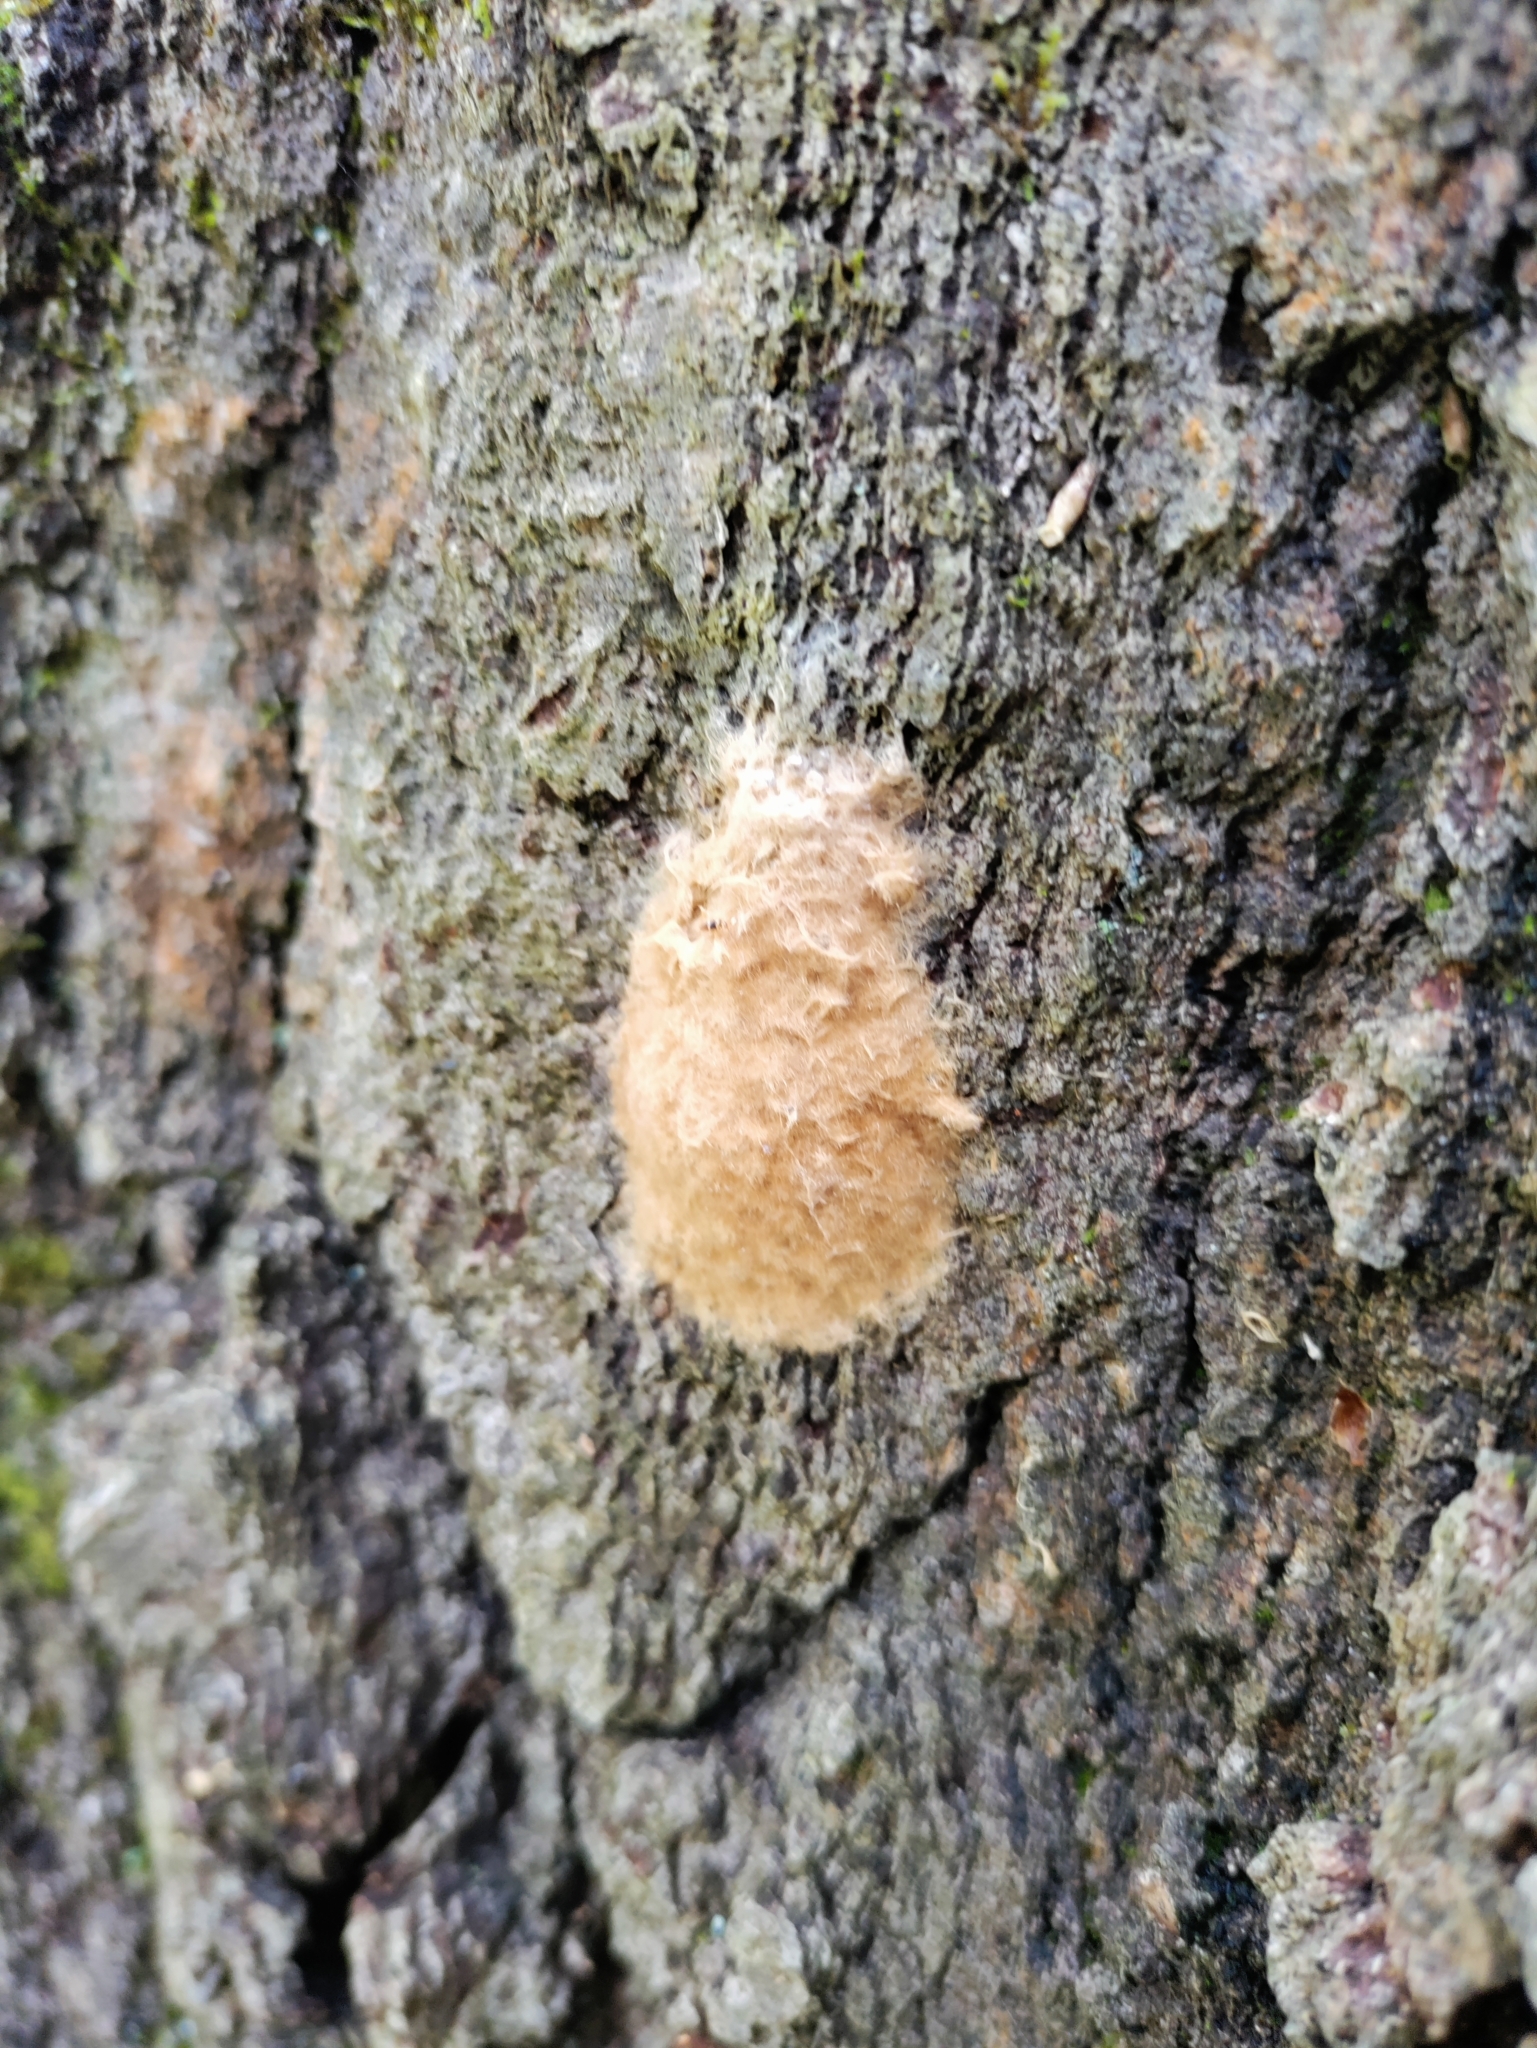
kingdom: Animalia
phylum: Arthropoda
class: Insecta
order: Lepidoptera
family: Erebidae
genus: Lymantria
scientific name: Lymantria dispar
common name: Gypsy moth
